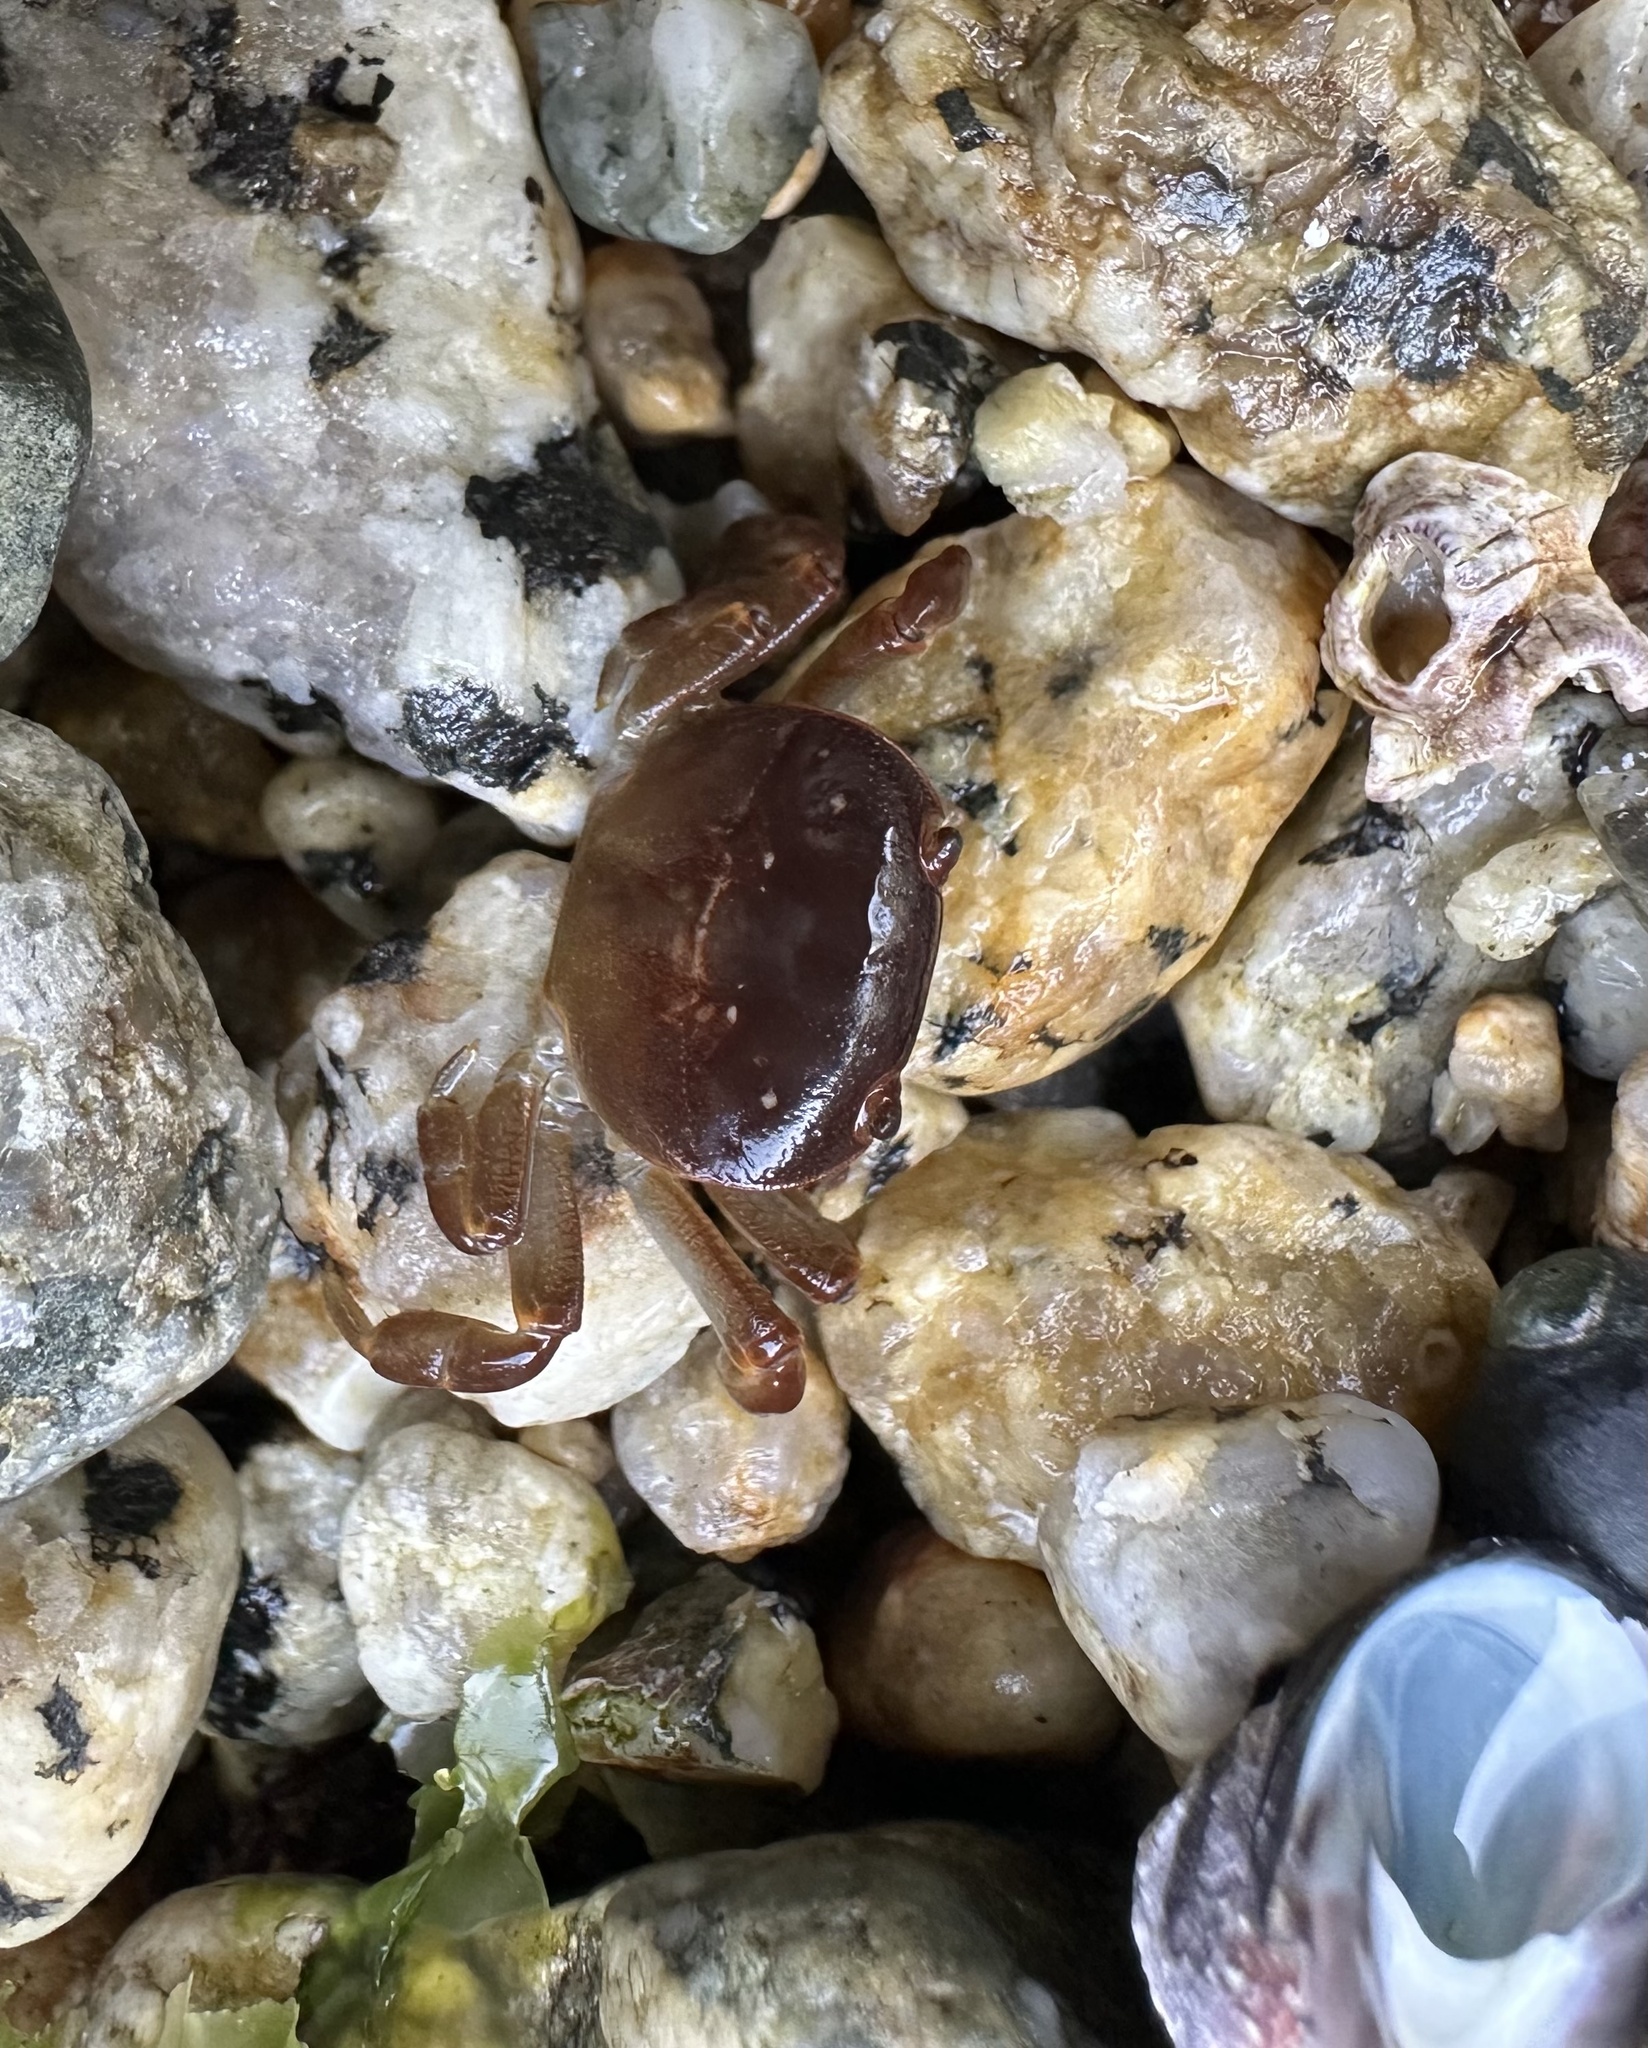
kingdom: Animalia
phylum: Arthropoda
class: Malacostraca
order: Decapoda
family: Varunidae
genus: Cyclograpsus
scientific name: Cyclograpsus cinereus
